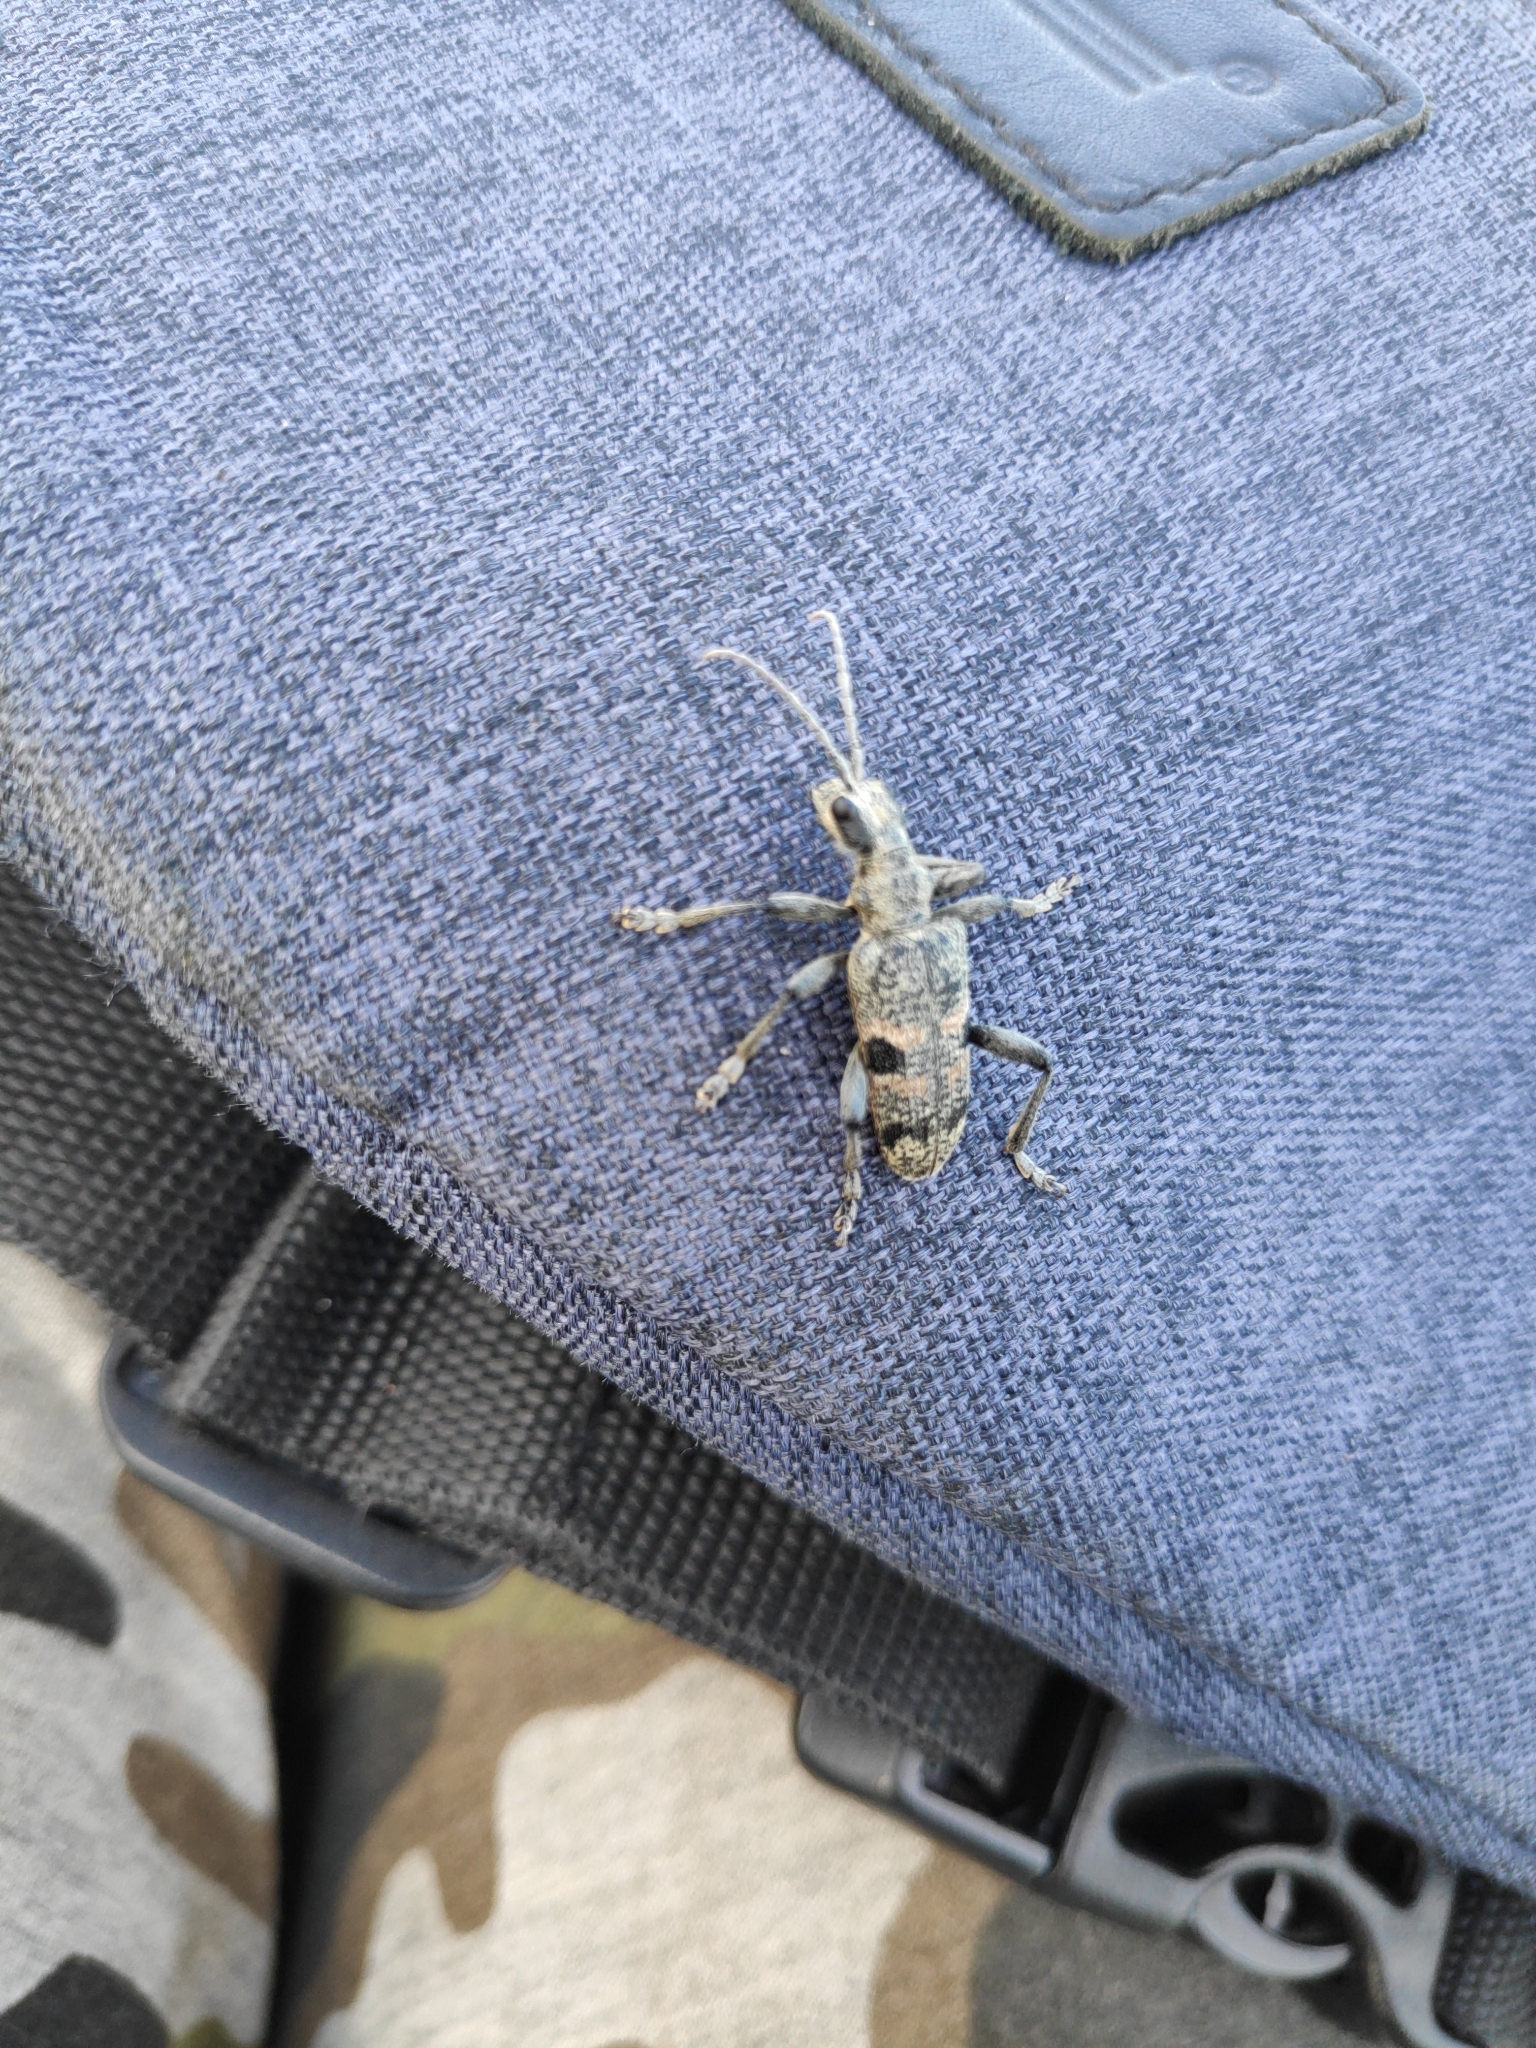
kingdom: Animalia
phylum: Arthropoda
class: Insecta
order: Coleoptera
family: Cerambycidae
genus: Rhagium
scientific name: Rhagium mordax
